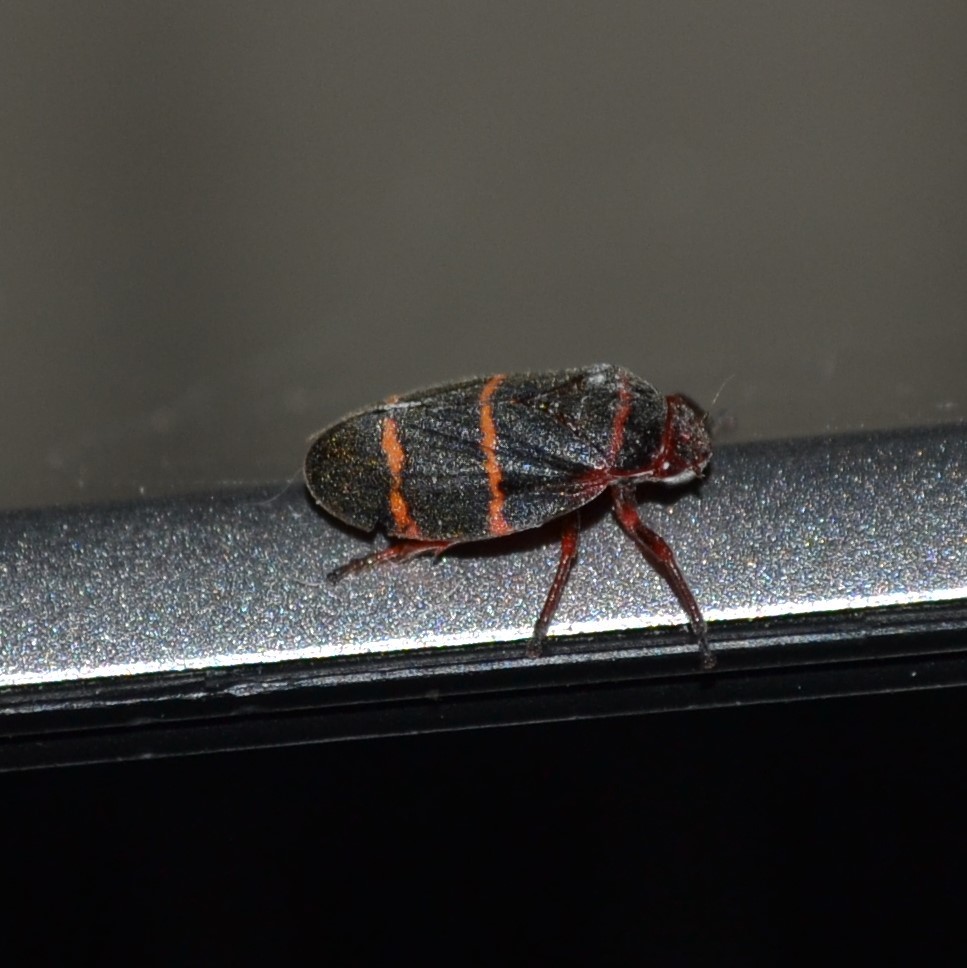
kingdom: Animalia
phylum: Arthropoda
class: Insecta
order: Hemiptera
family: Cercopidae
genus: Prosapia
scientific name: Prosapia bicincta
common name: Twolined spittlebug
